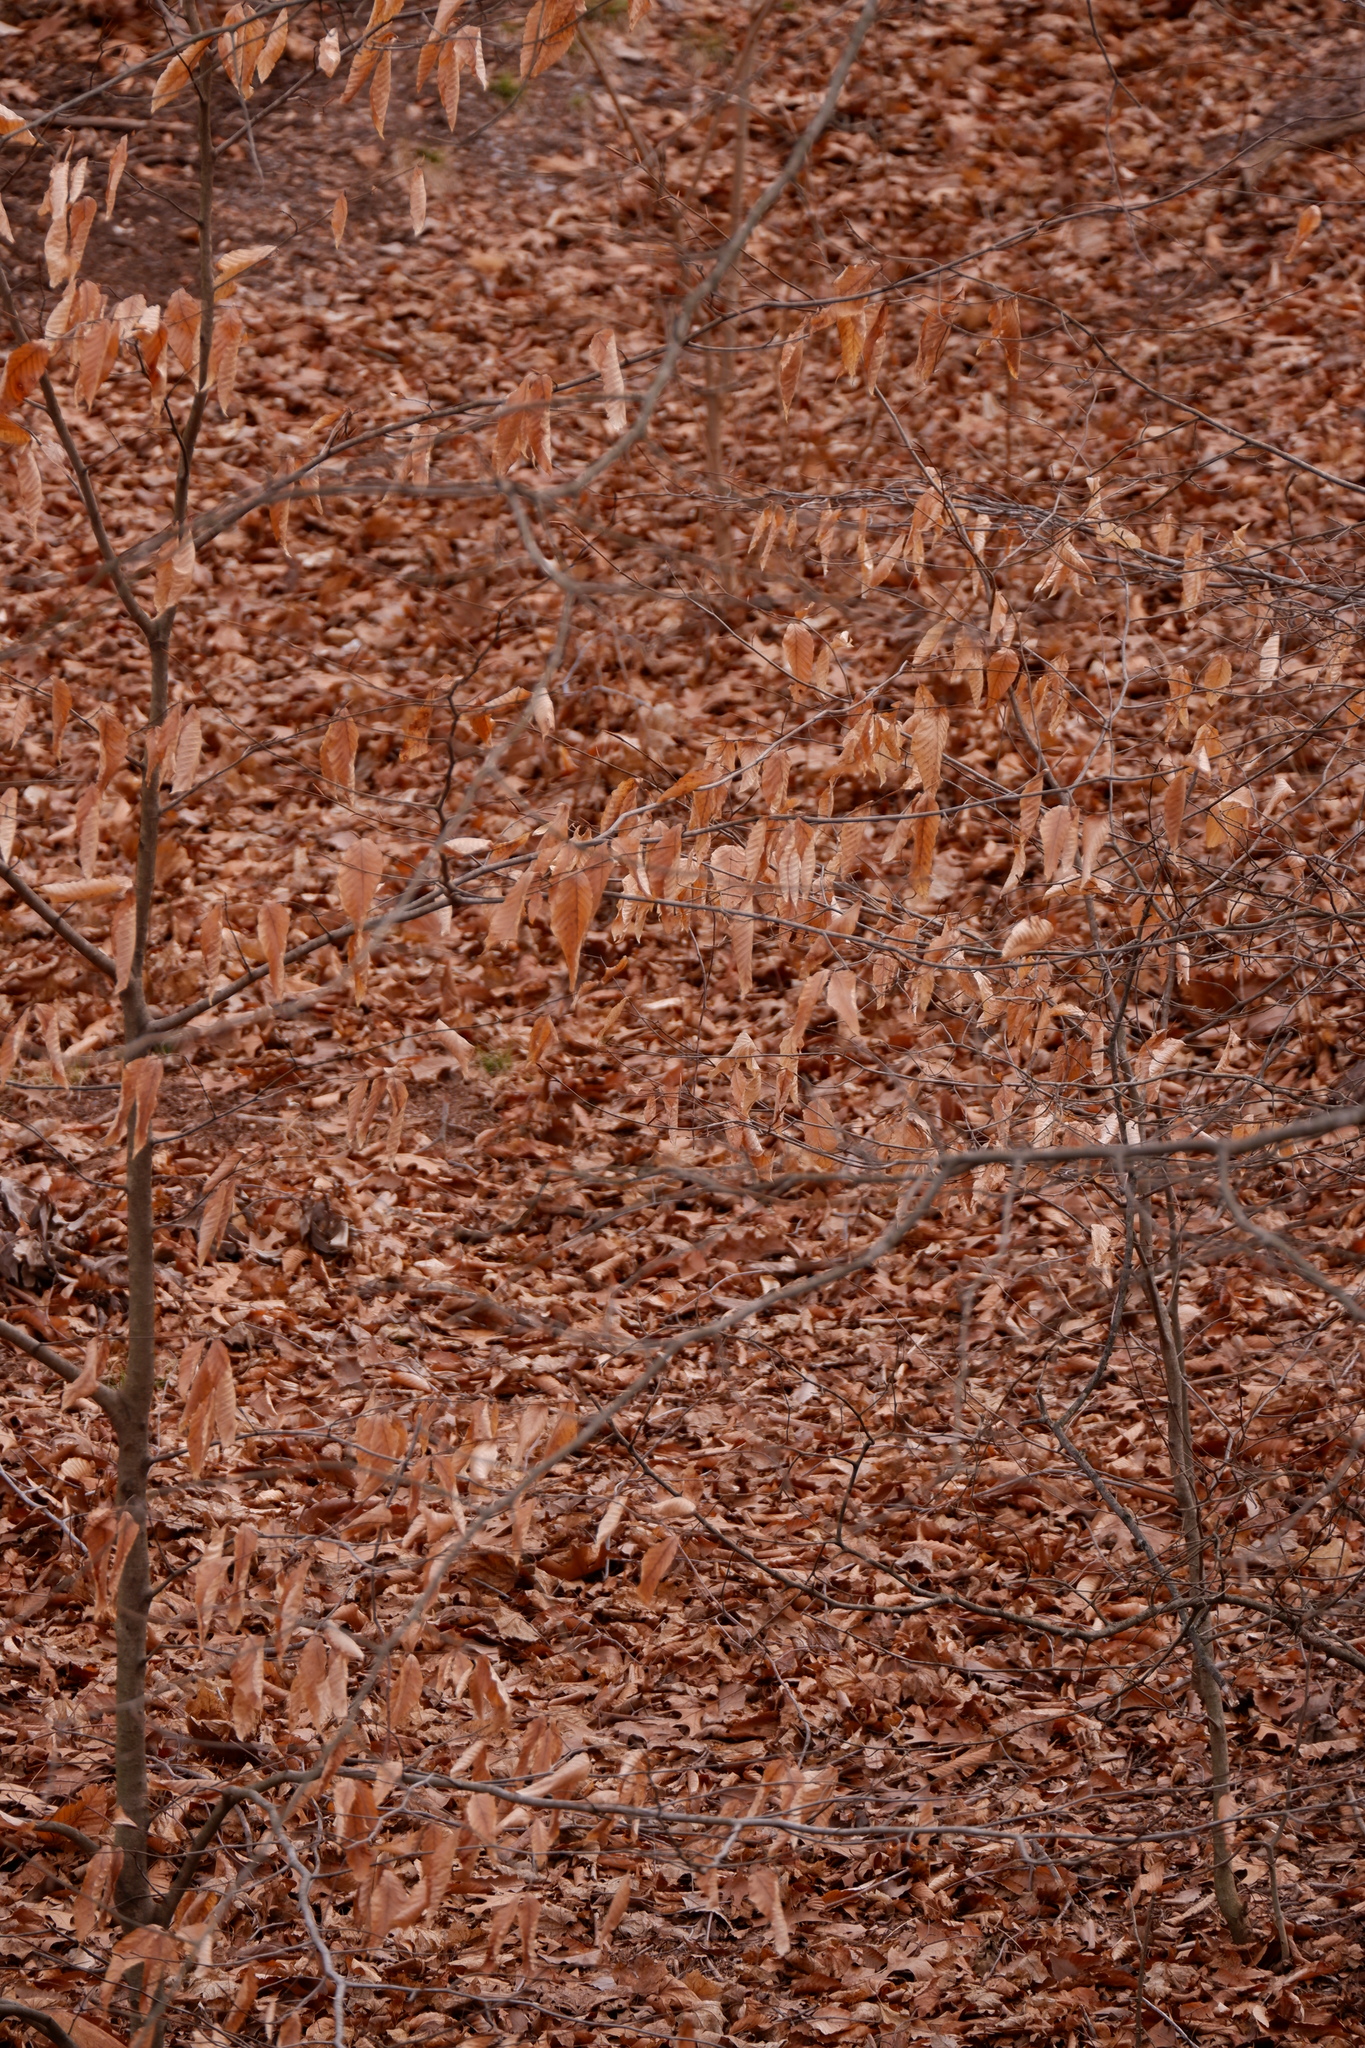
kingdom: Plantae
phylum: Tracheophyta
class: Magnoliopsida
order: Fagales
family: Fagaceae
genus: Fagus
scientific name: Fagus grandifolia
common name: American beech
